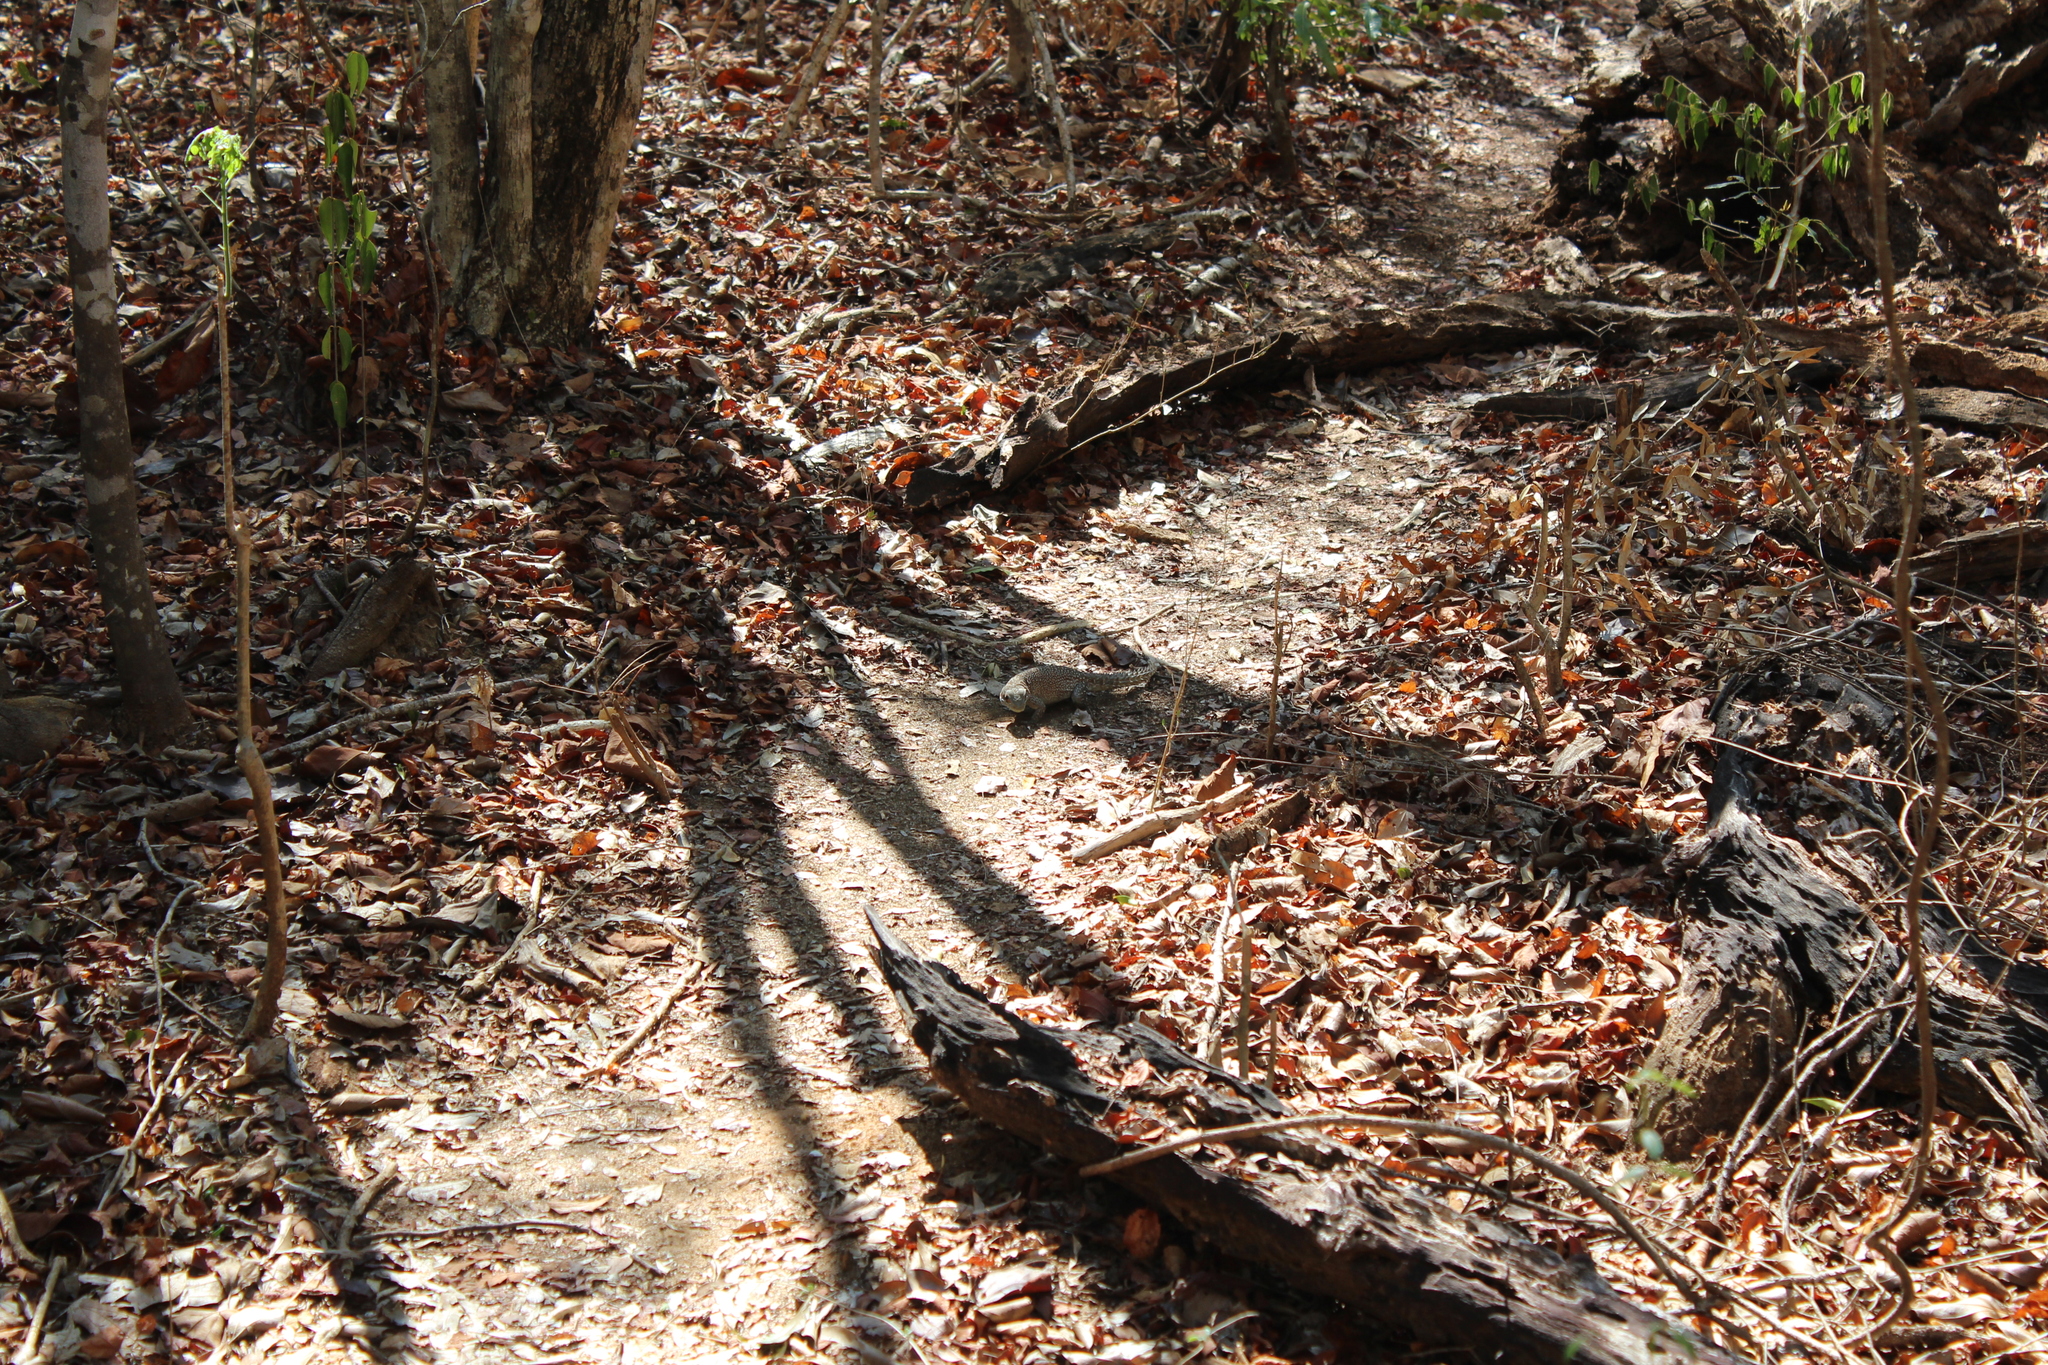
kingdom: Animalia
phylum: Chordata
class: Squamata
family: Opluridae
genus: Oplurus
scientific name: Oplurus cuvieri
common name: Cuvier's madagascar swift
